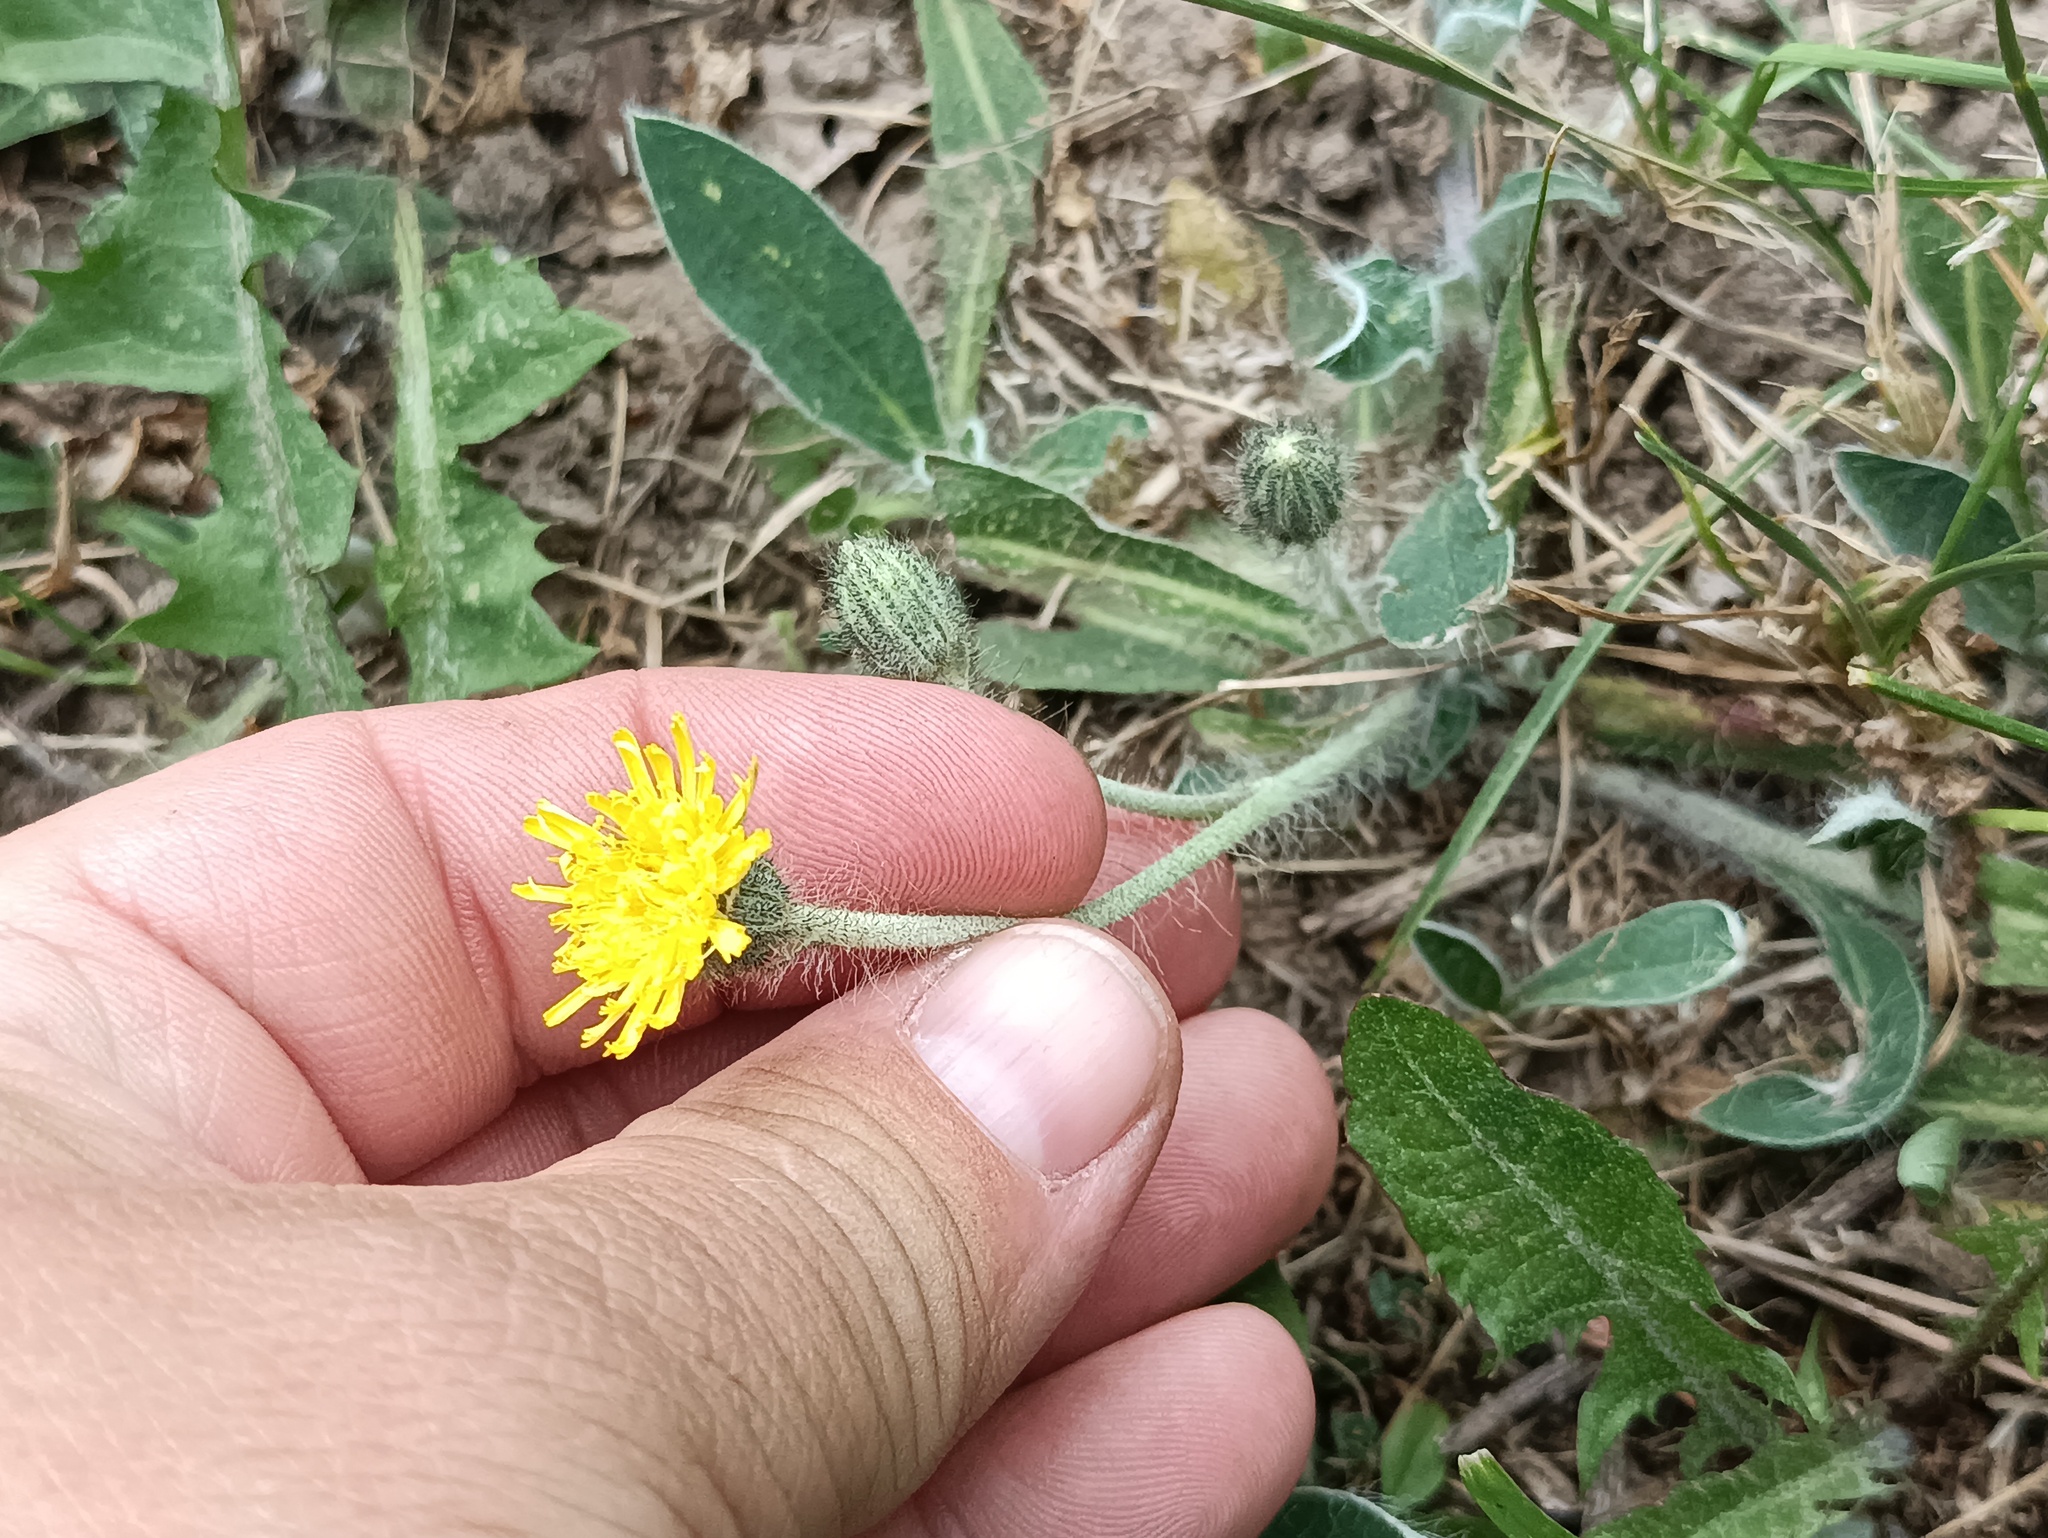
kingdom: Plantae
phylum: Tracheophyta
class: Magnoliopsida
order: Asterales
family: Asteraceae
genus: Pilosella
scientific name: Pilosella officinarum
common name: Mouse-ear hawkweed
